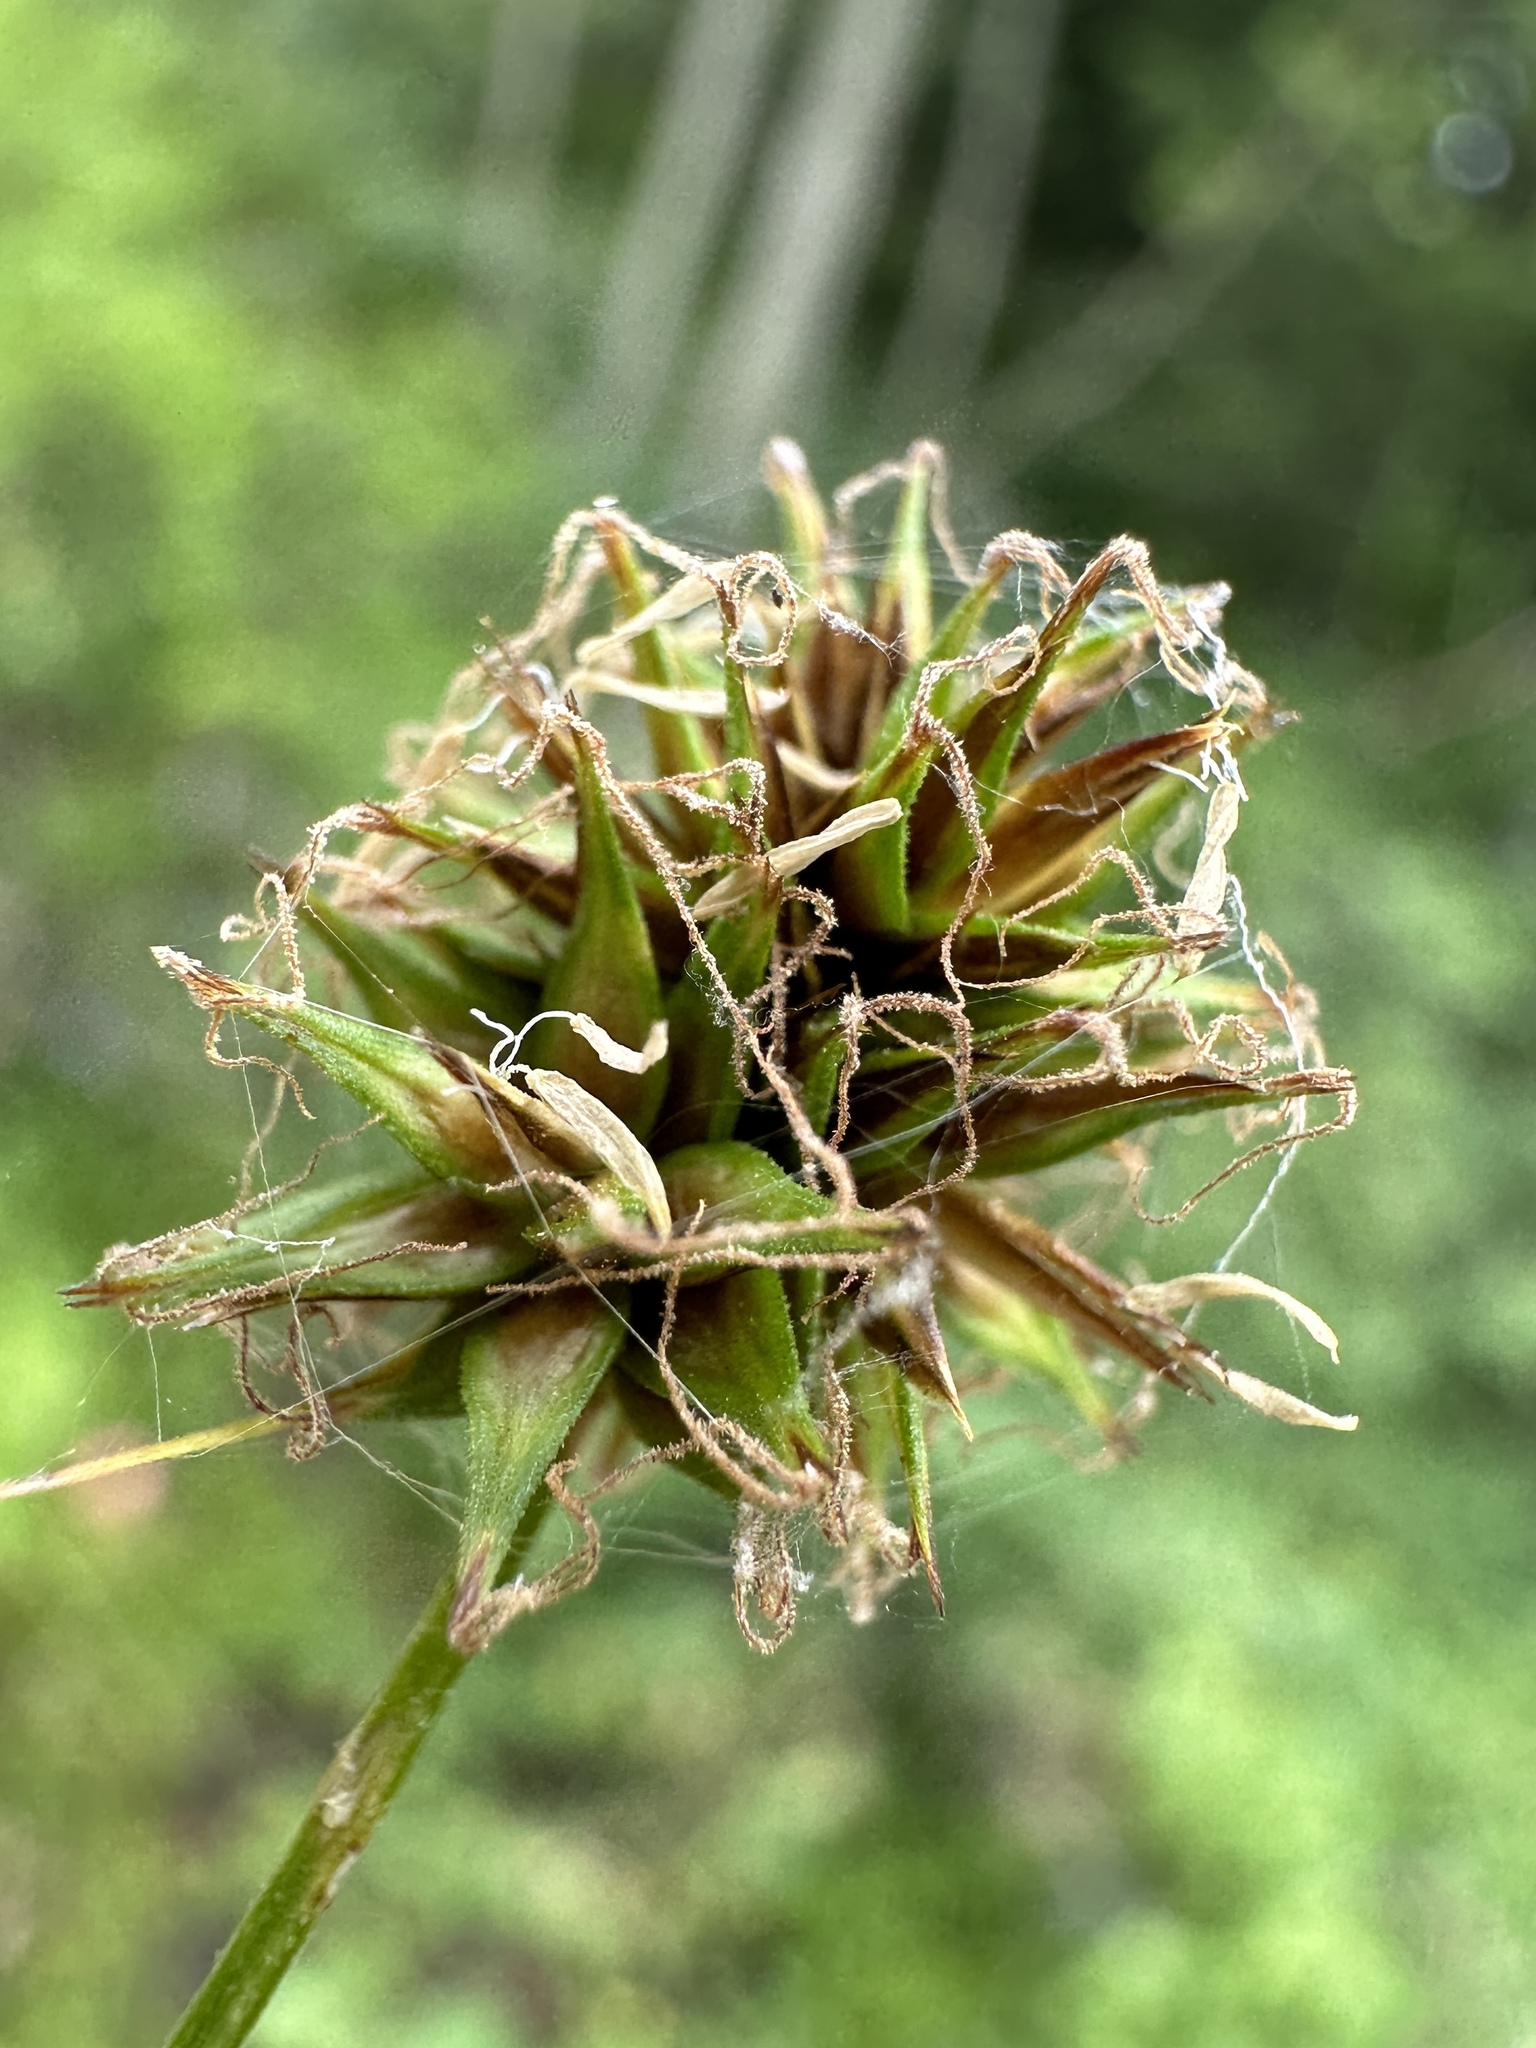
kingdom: Plantae
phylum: Tracheophyta
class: Liliopsida
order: Poales
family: Cyperaceae
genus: Carex
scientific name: Carex hoodii
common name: Hood's sedge
